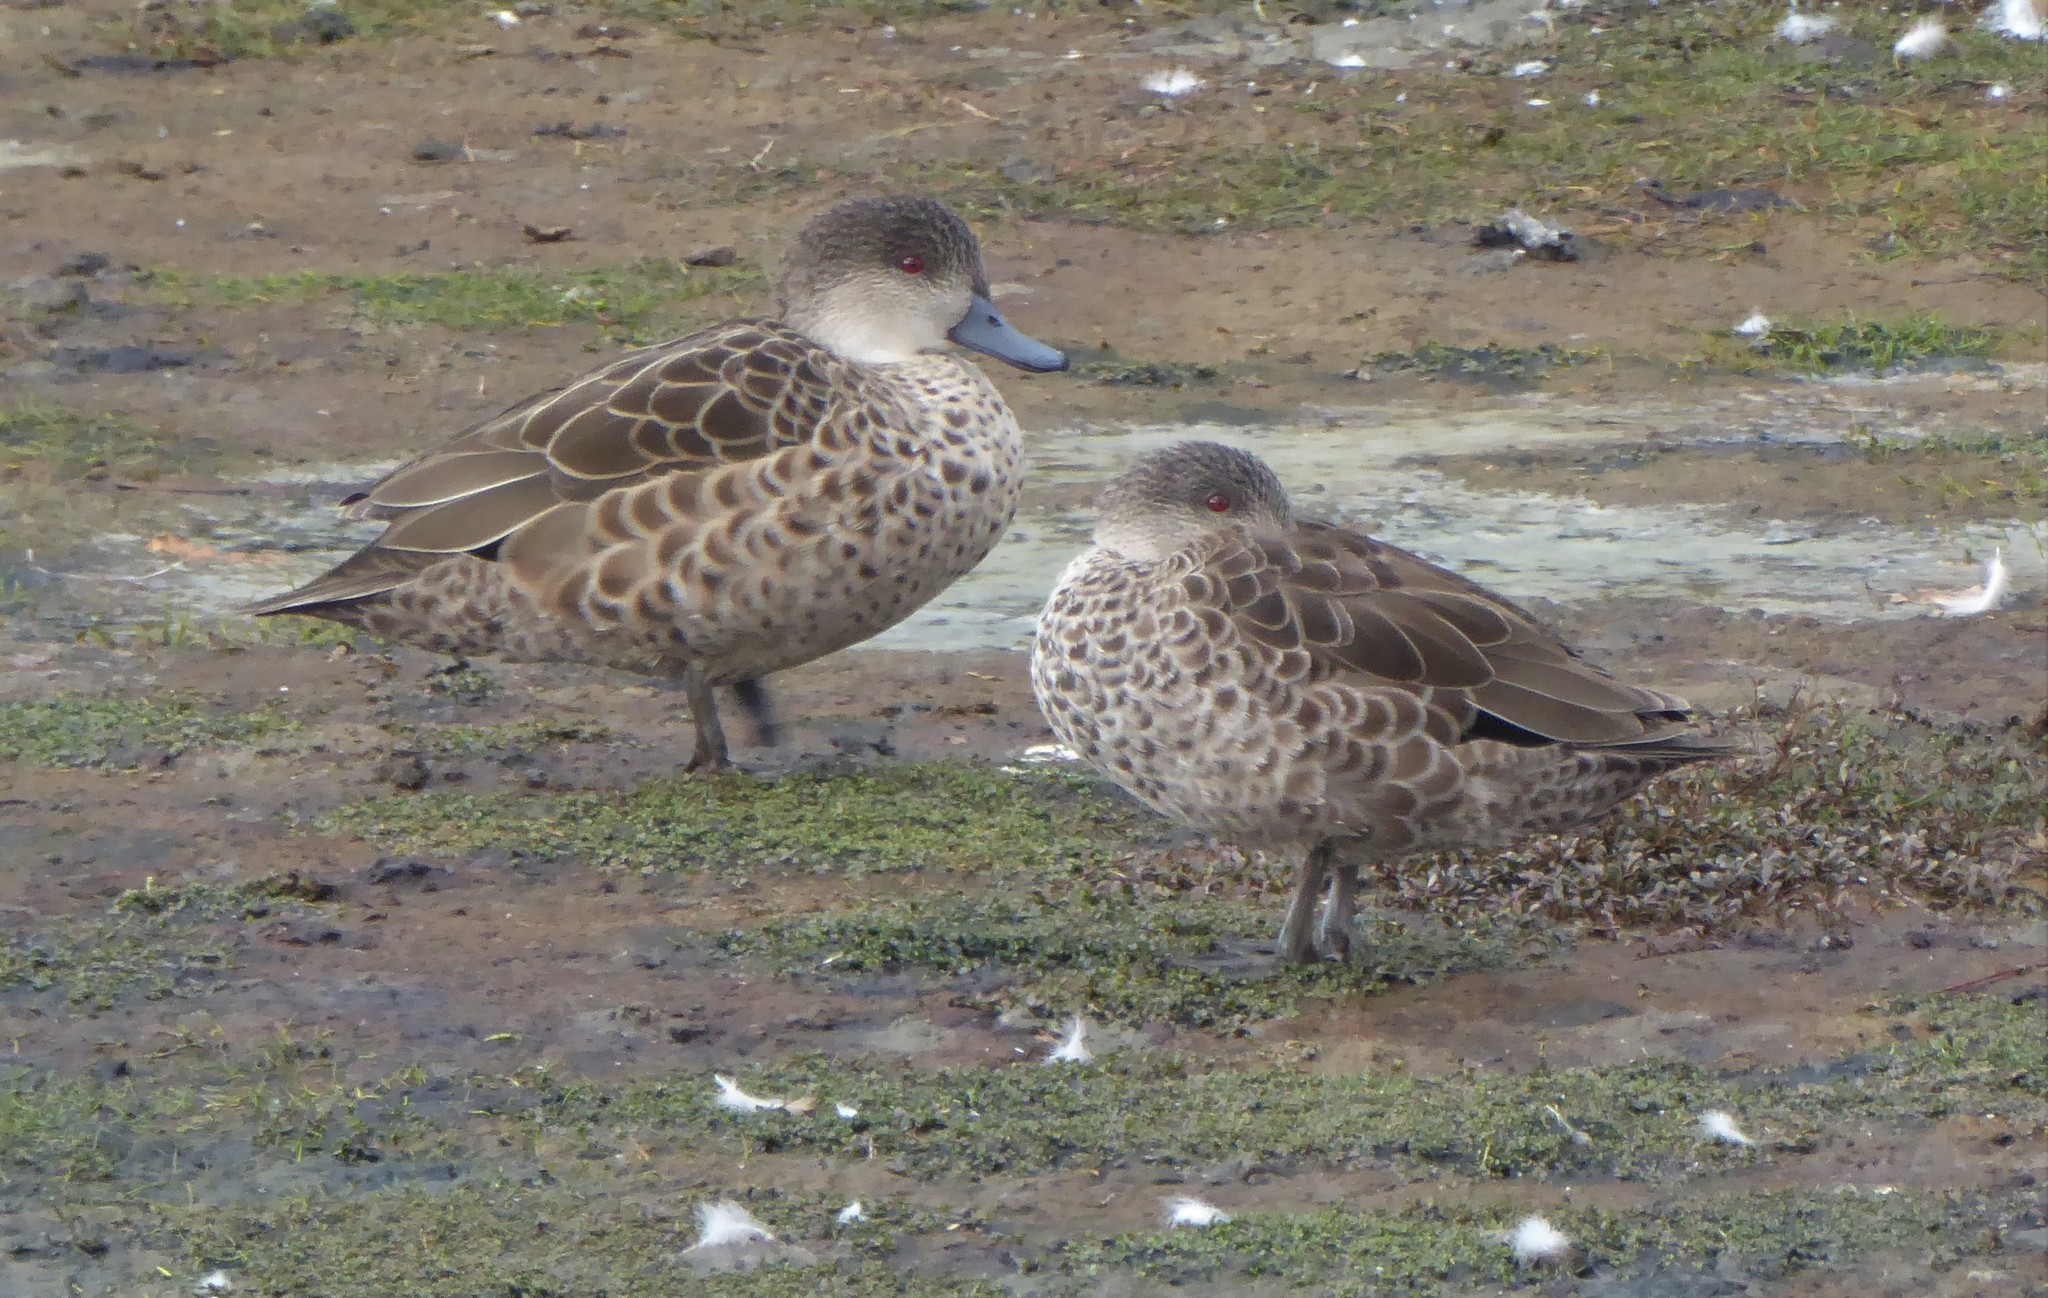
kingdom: Animalia
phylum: Chordata
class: Aves
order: Anseriformes
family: Anatidae
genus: Anas
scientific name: Anas gracilis
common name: Grey teal
